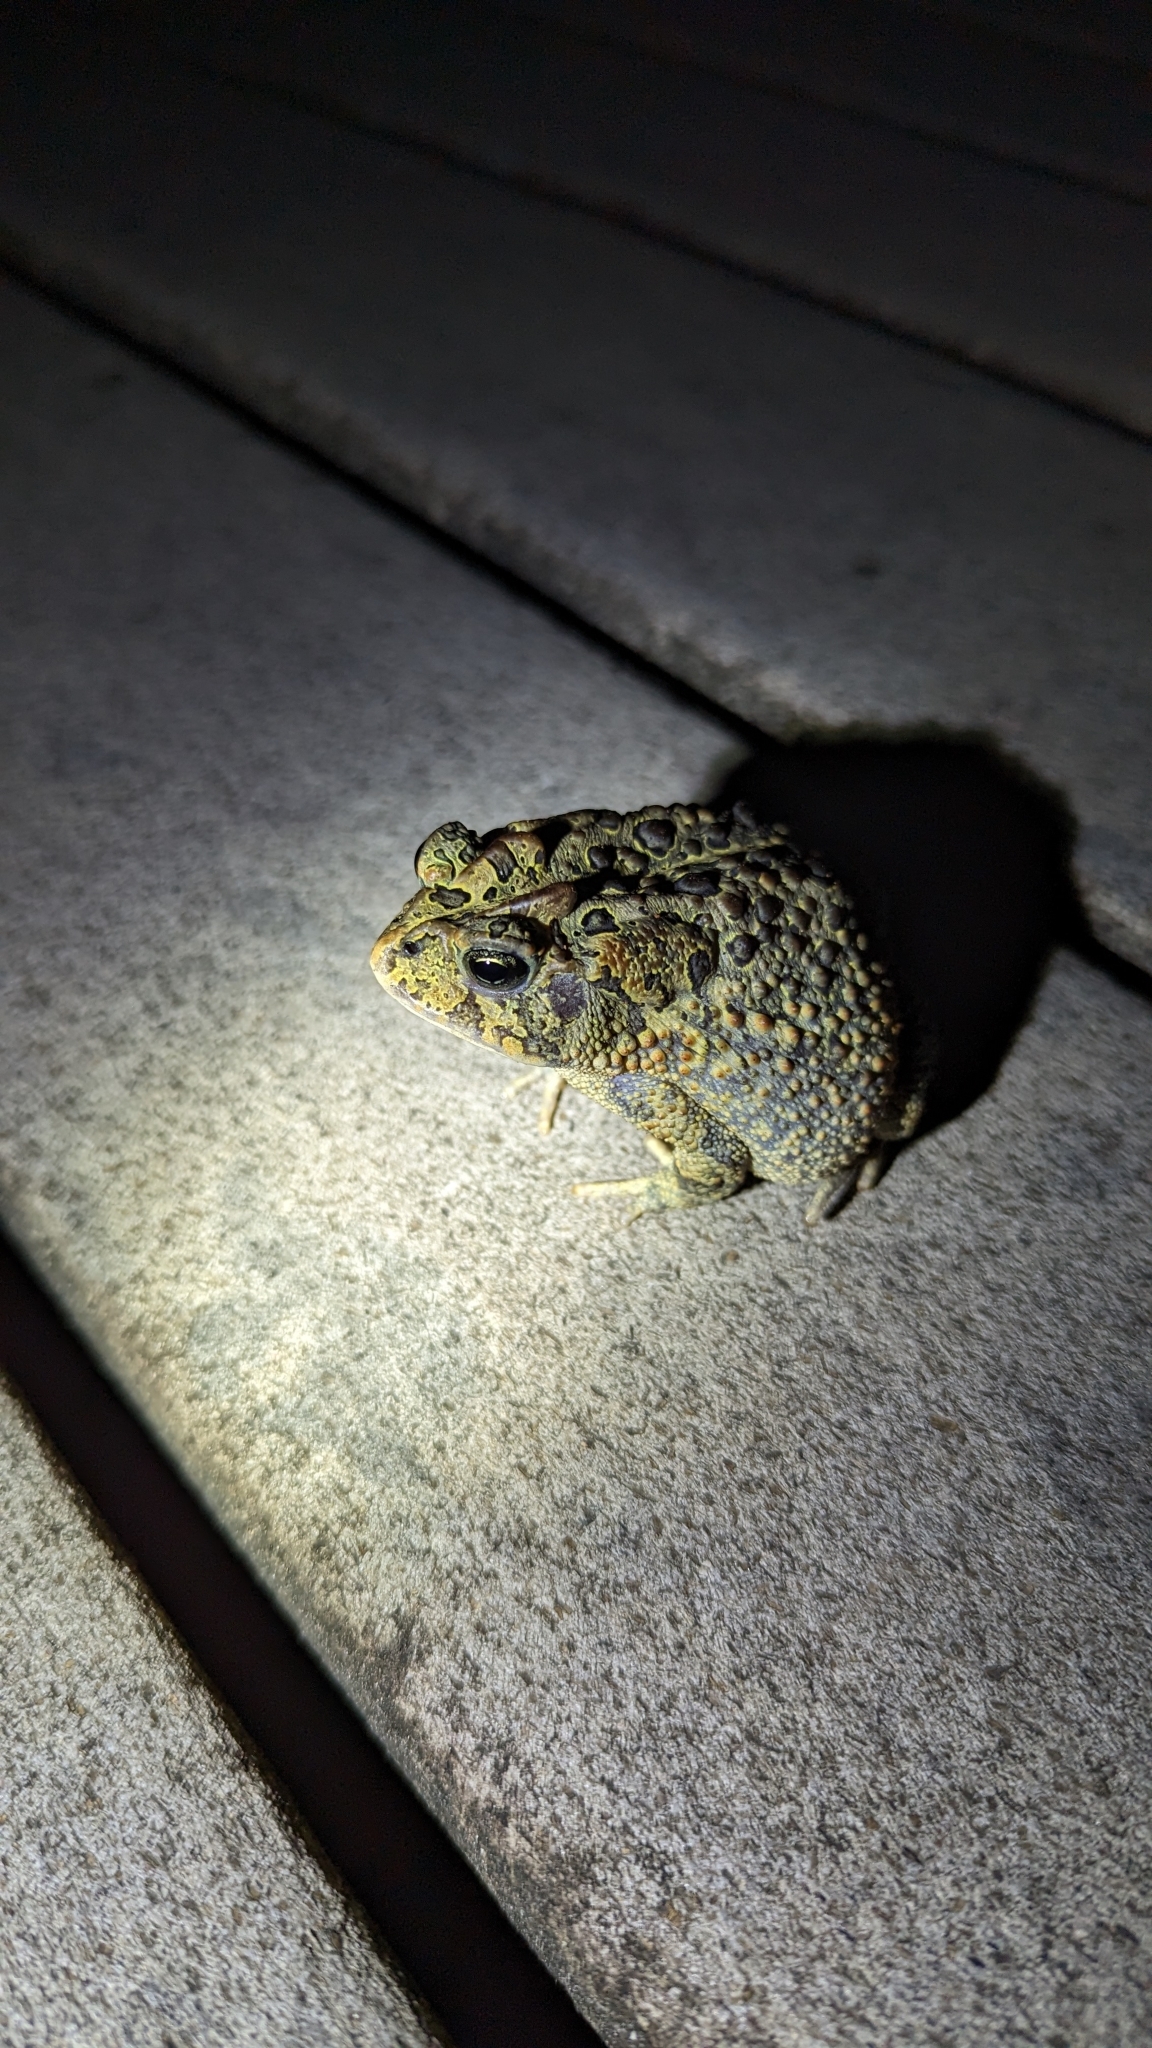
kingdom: Animalia
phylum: Chordata
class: Amphibia
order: Anura
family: Bufonidae
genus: Anaxyrus
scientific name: Anaxyrus terrestris
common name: Southern toad
